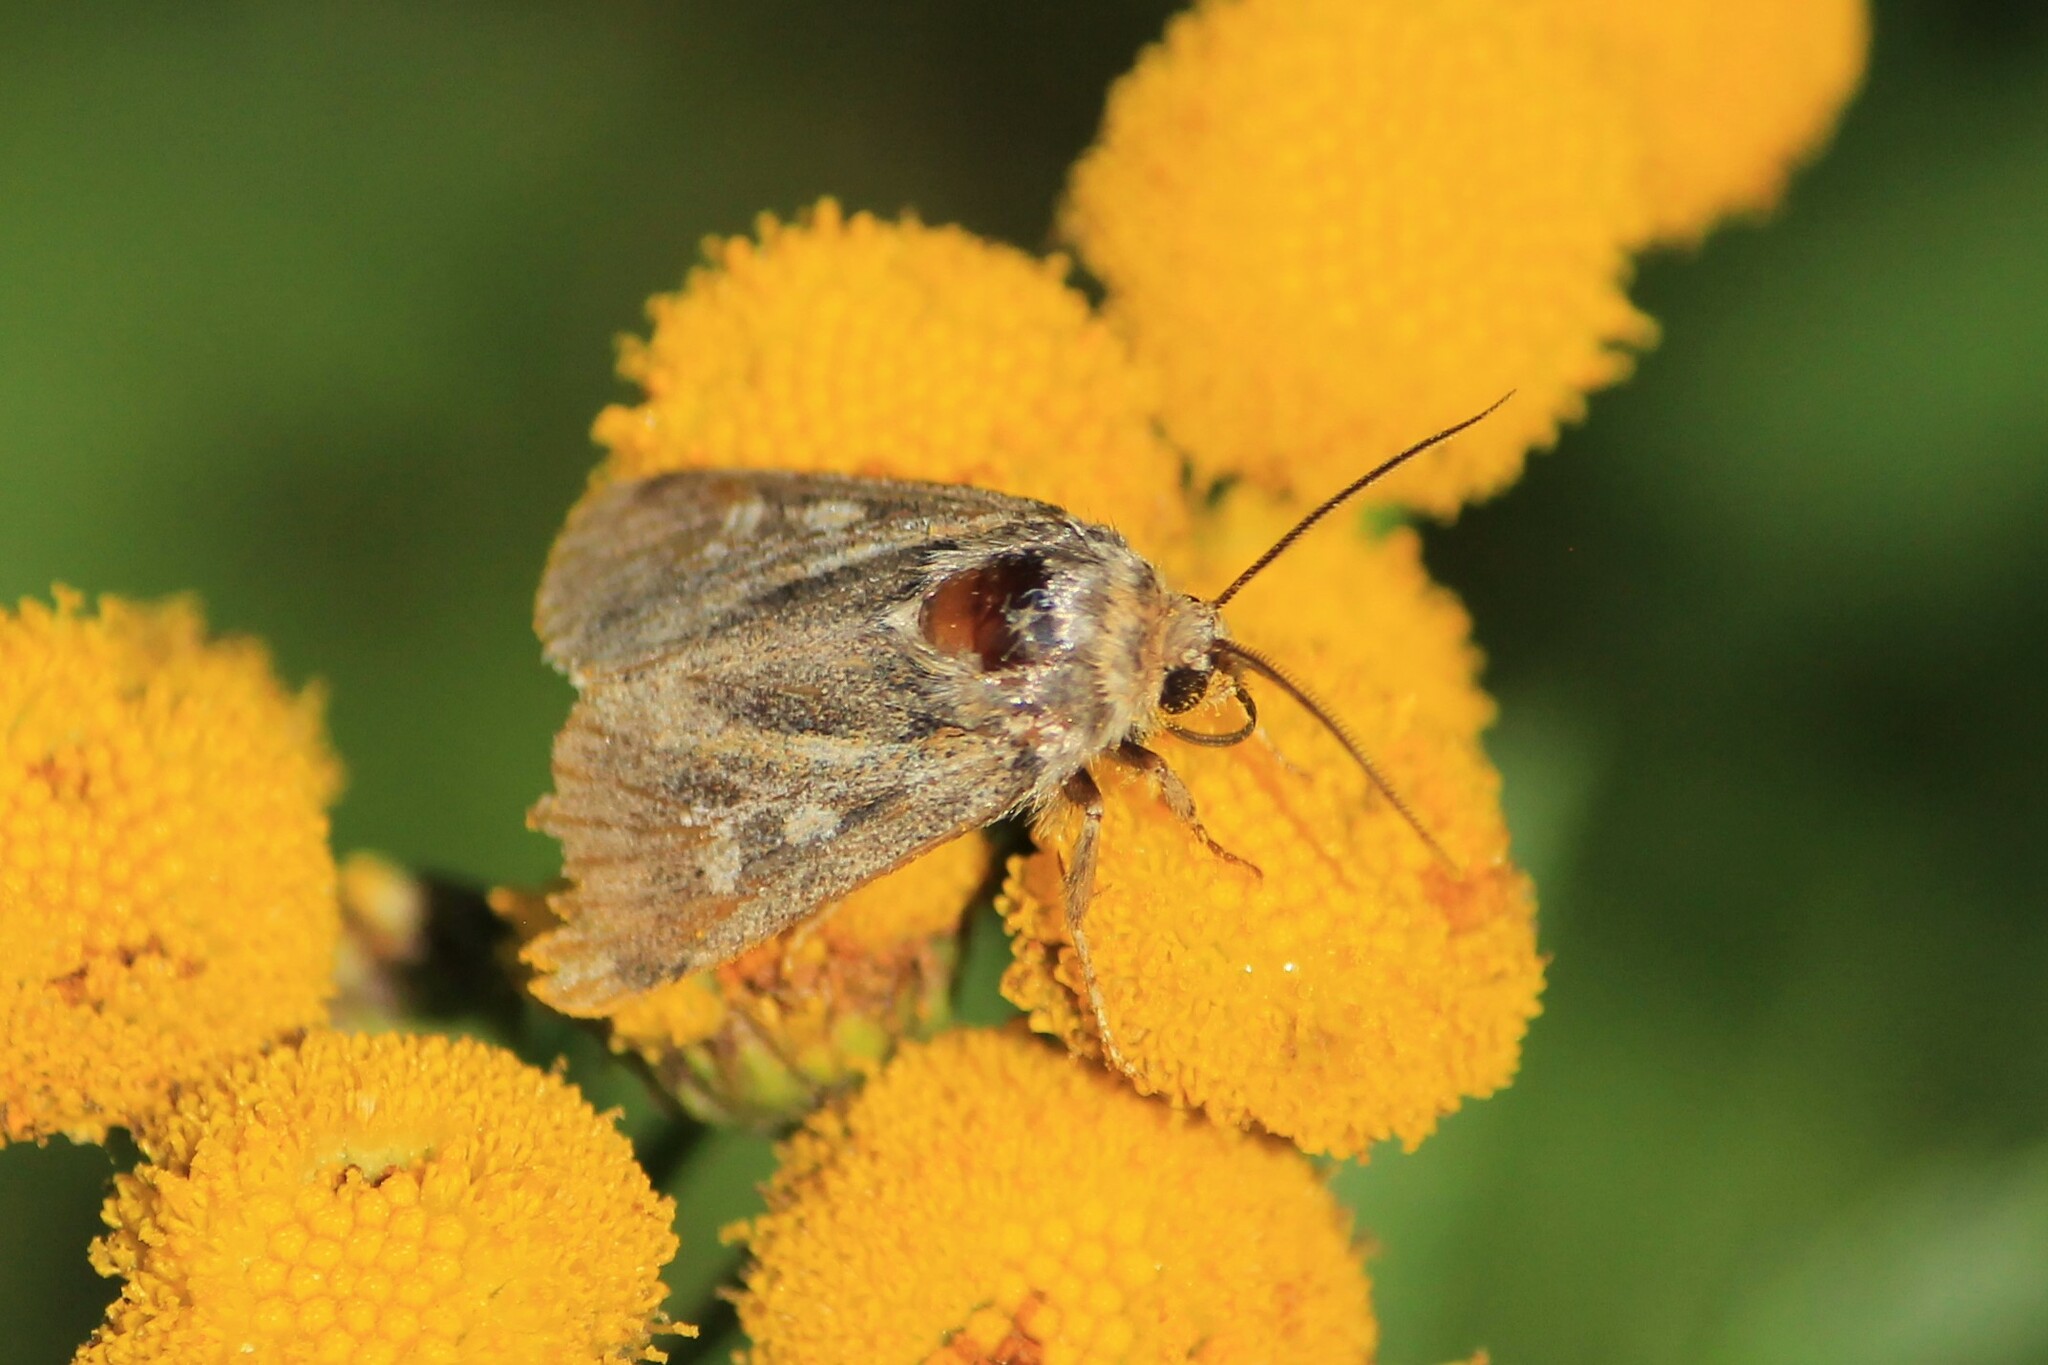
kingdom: Animalia
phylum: Arthropoda
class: Insecta
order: Lepidoptera
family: Noctuidae
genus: Cerapteryx
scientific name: Cerapteryx graminis
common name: Antler moth
